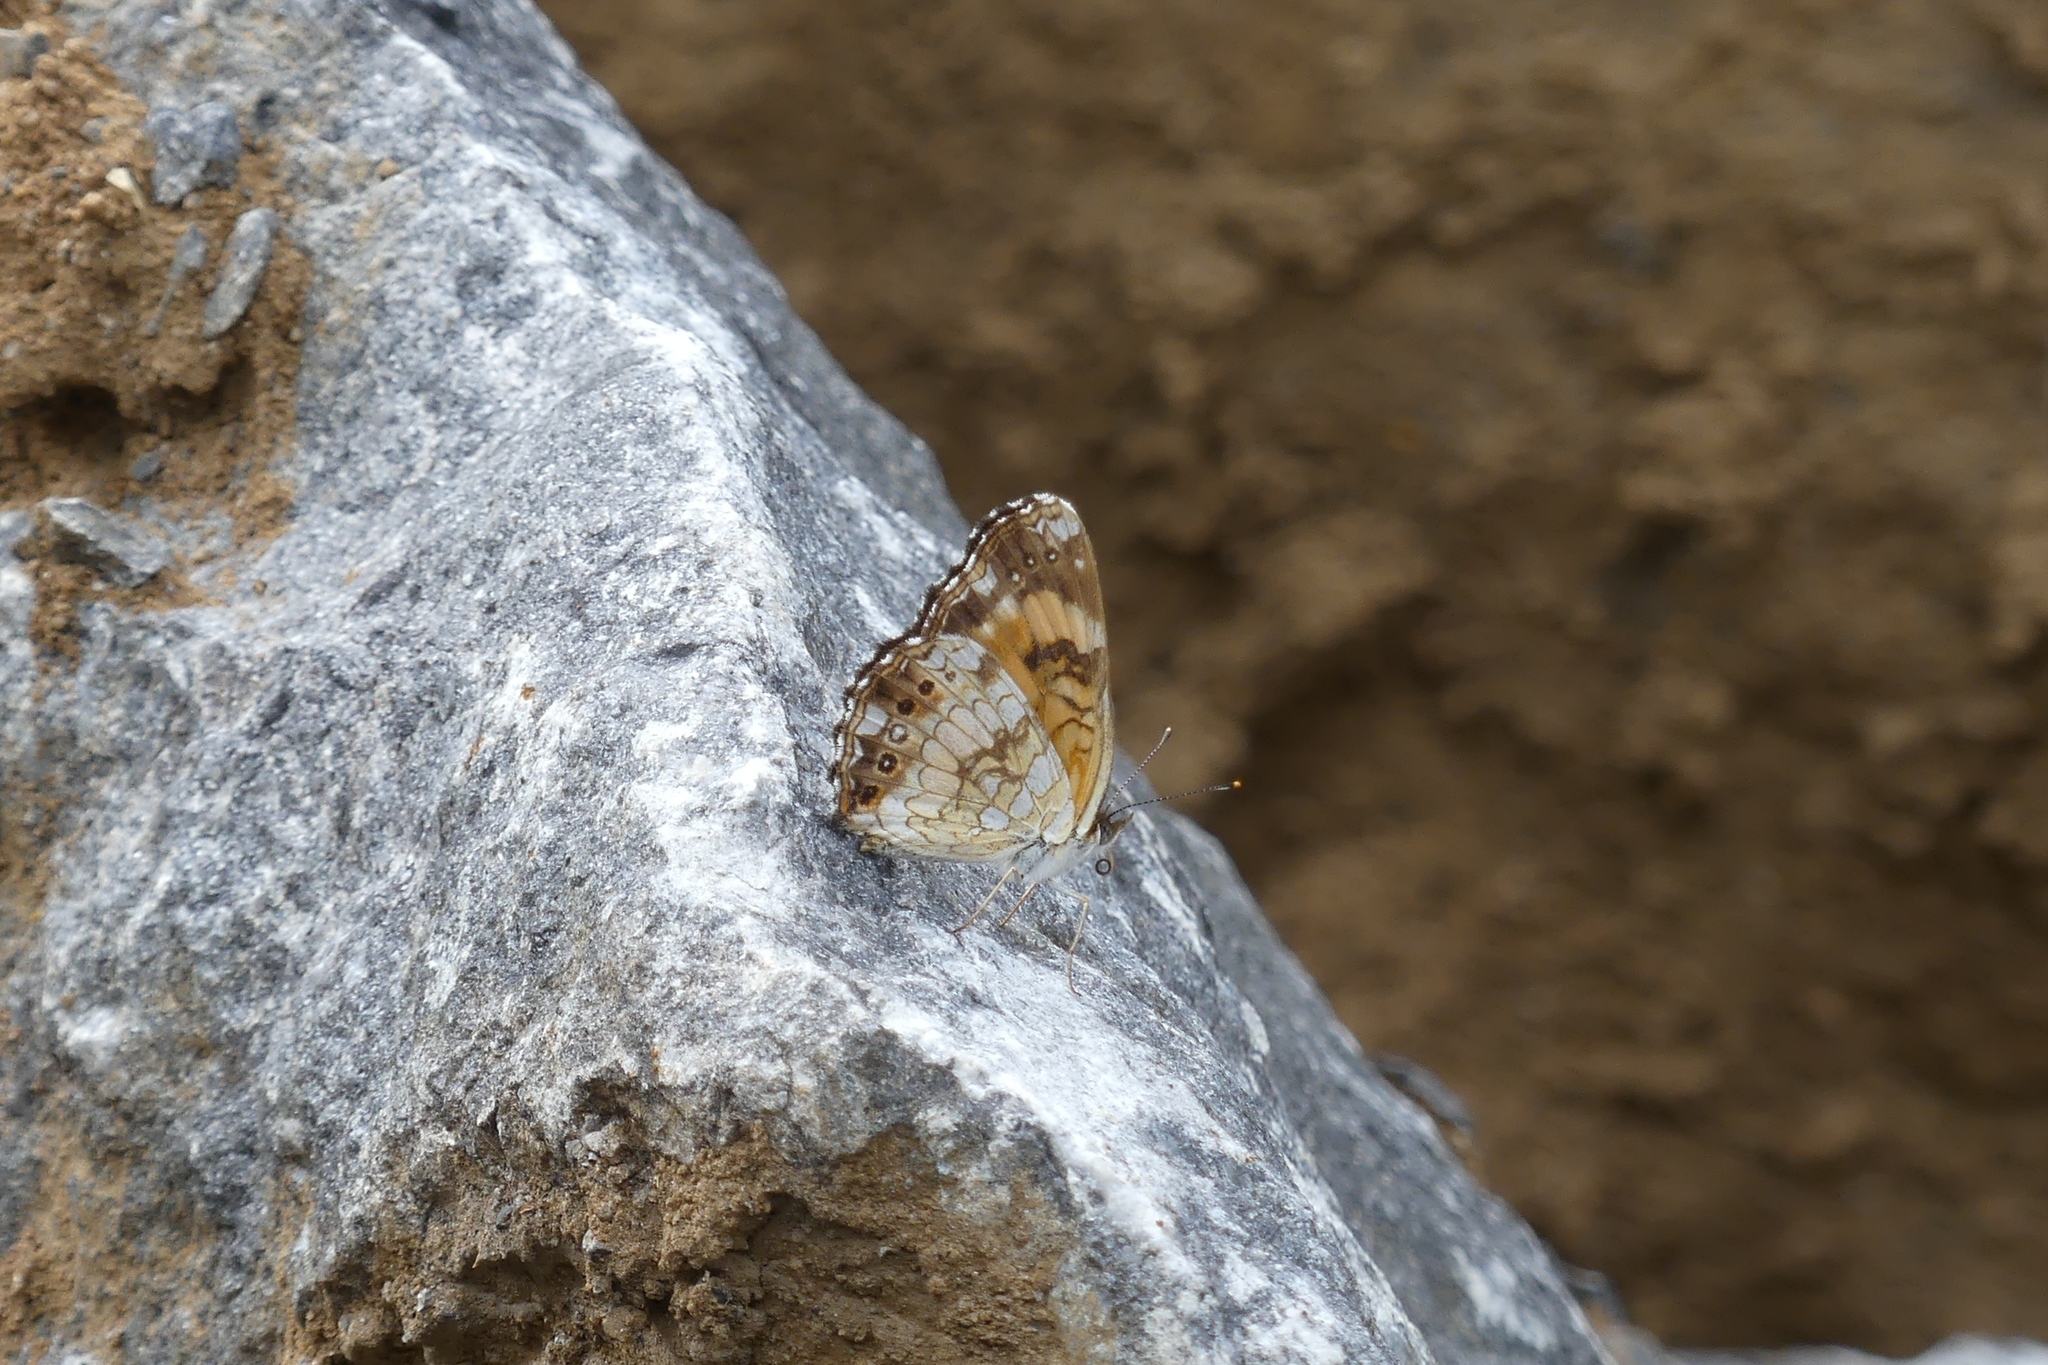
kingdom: Animalia
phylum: Arthropoda
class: Insecta
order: Lepidoptera
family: Nymphalidae
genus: Chlosyne
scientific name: Chlosyne nycteis
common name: Silvery checkerspot
